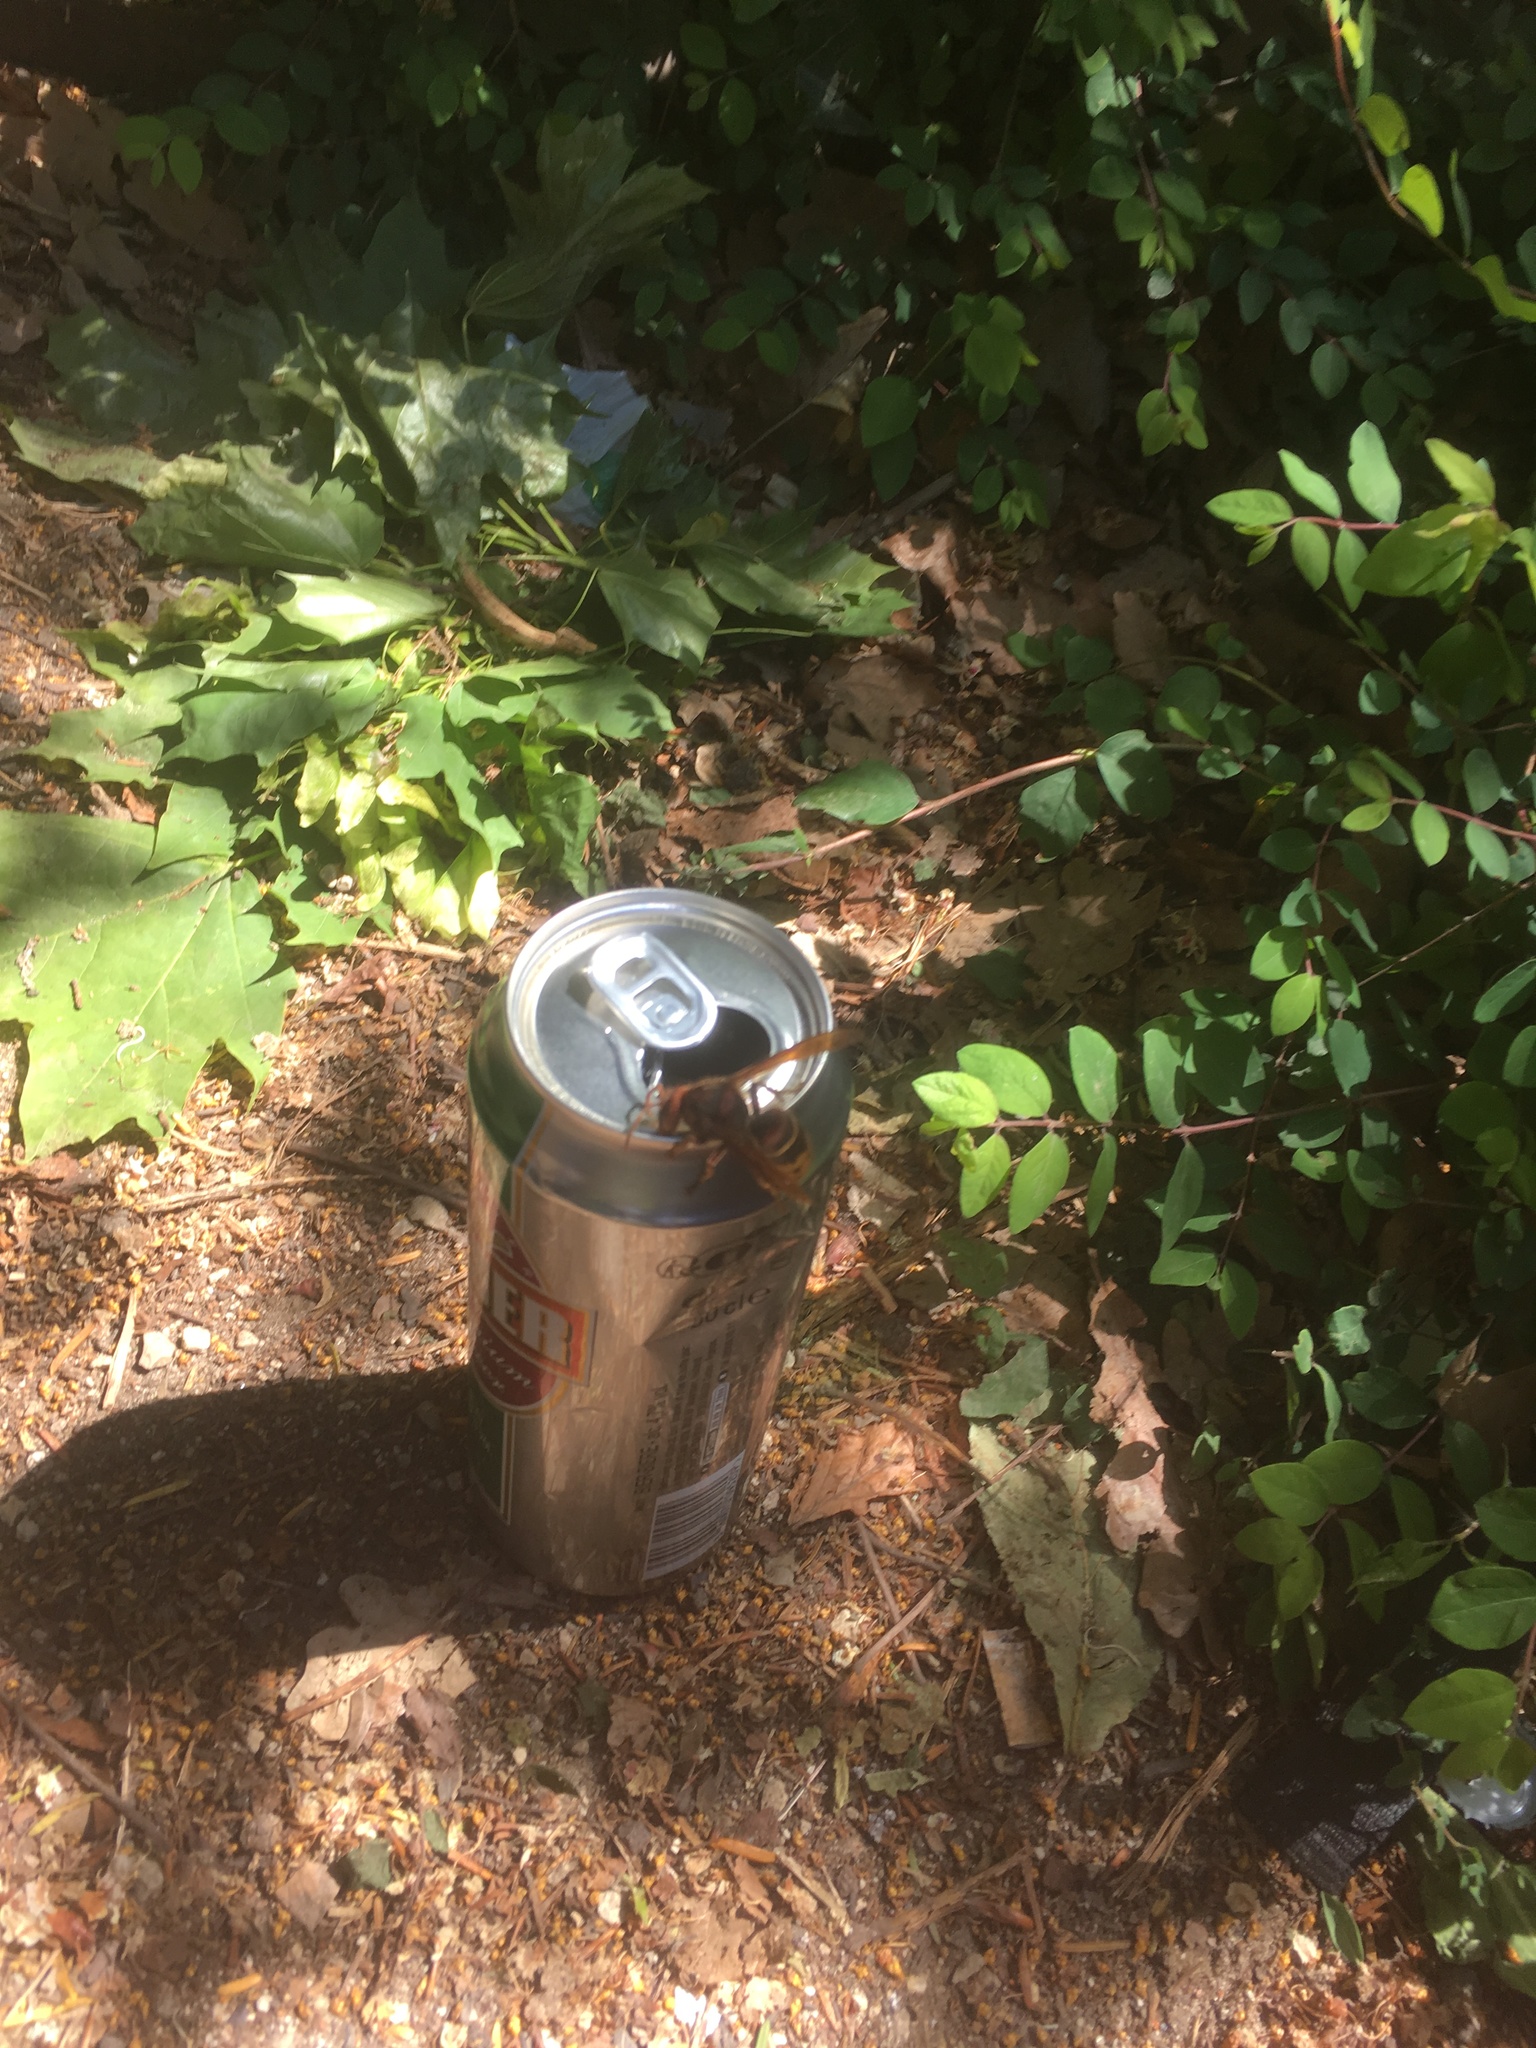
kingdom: Animalia
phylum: Arthropoda
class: Insecta
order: Hymenoptera
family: Vespidae
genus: Vespa
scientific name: Vespa crabro
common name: Hornet
